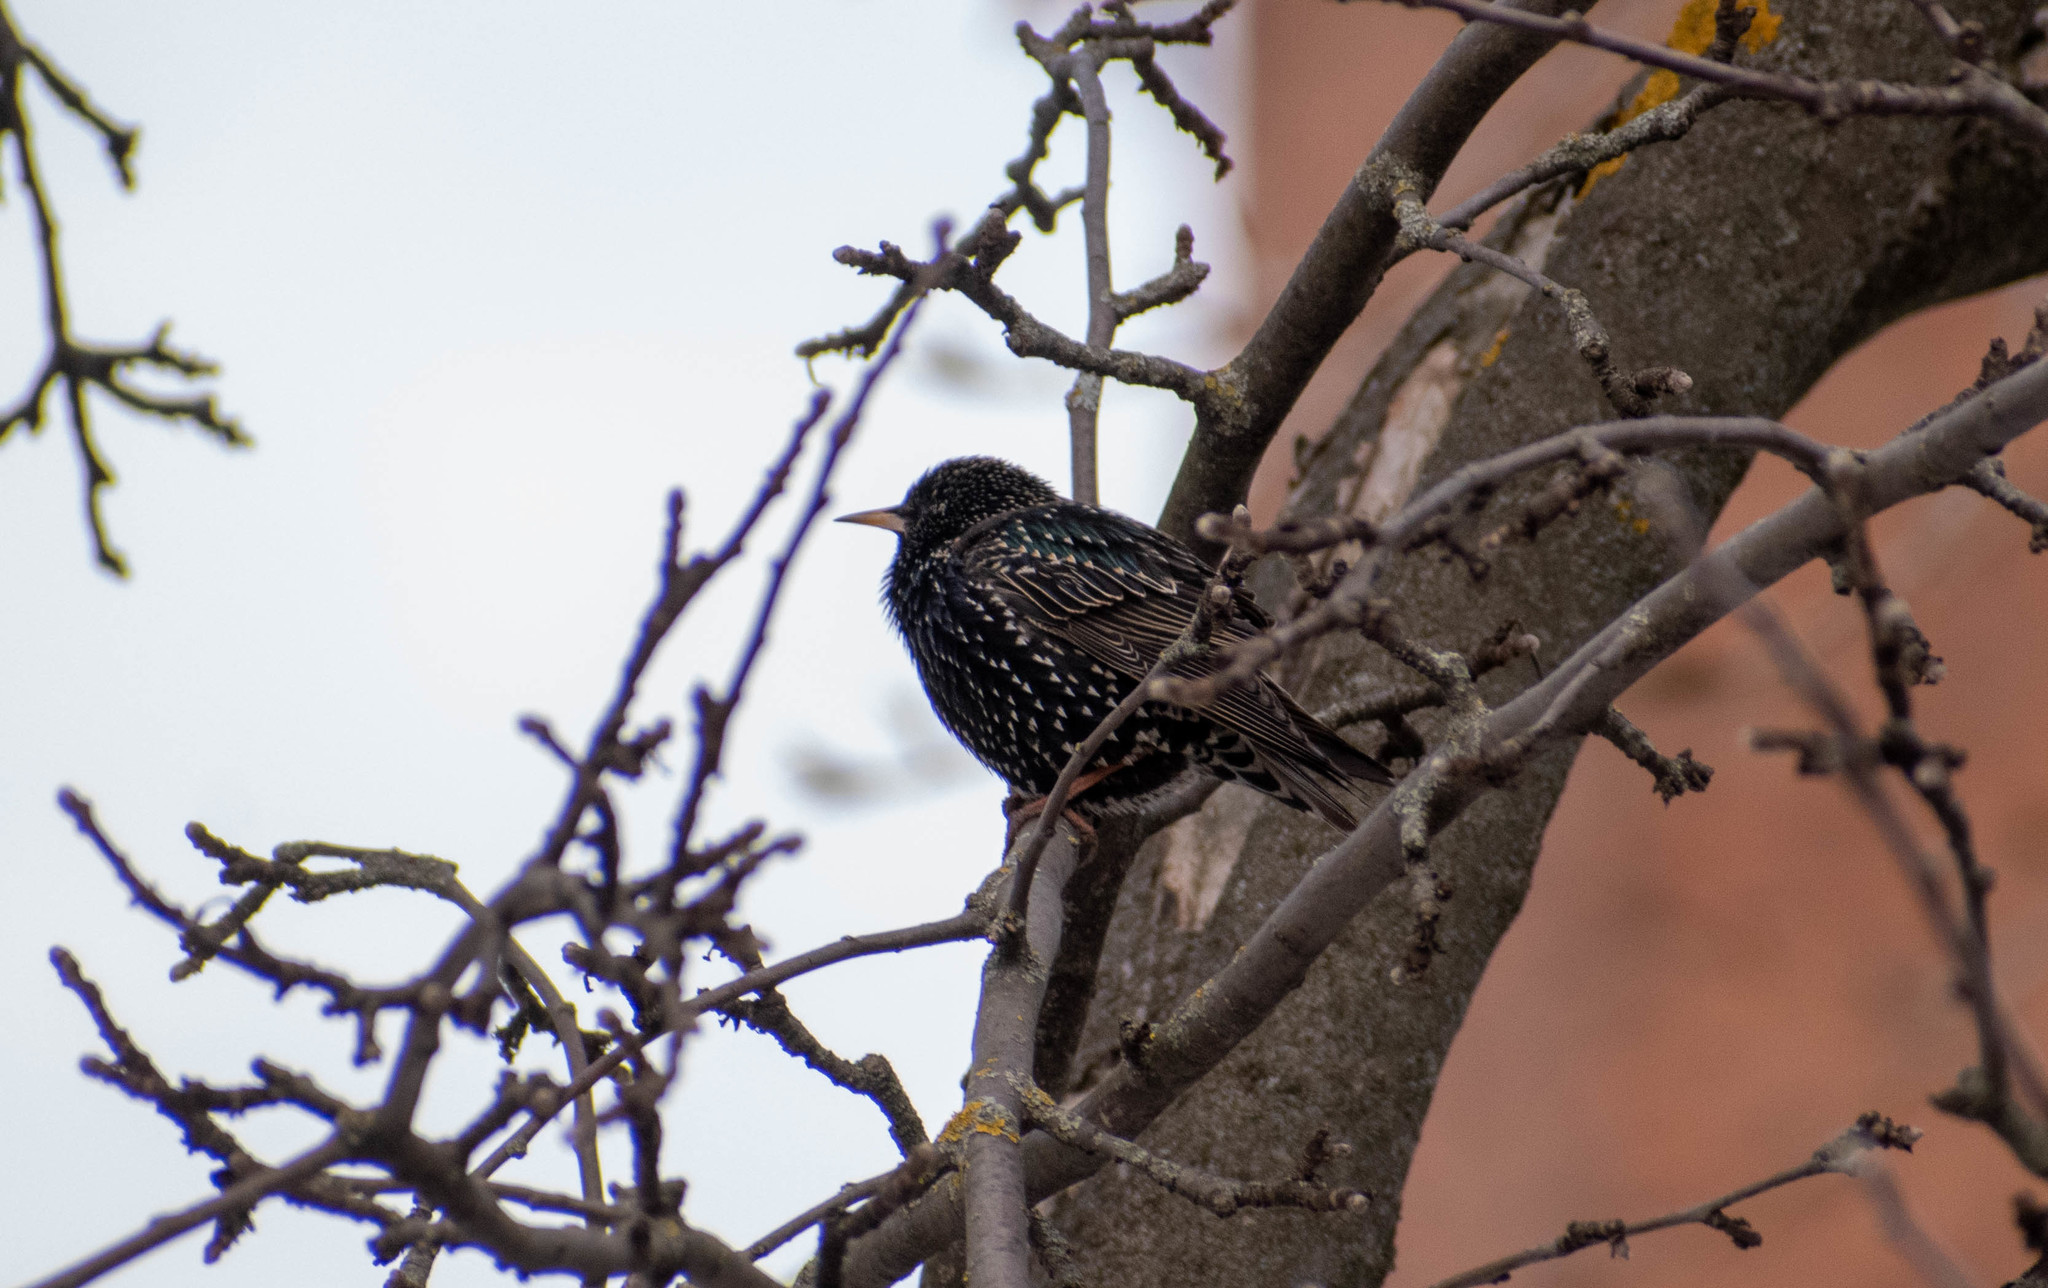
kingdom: Animalia
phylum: Chordata
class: Aves
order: Passeriformes
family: Sturnidae
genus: Sturnus
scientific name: Sturnus vulgaris
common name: Common starling
